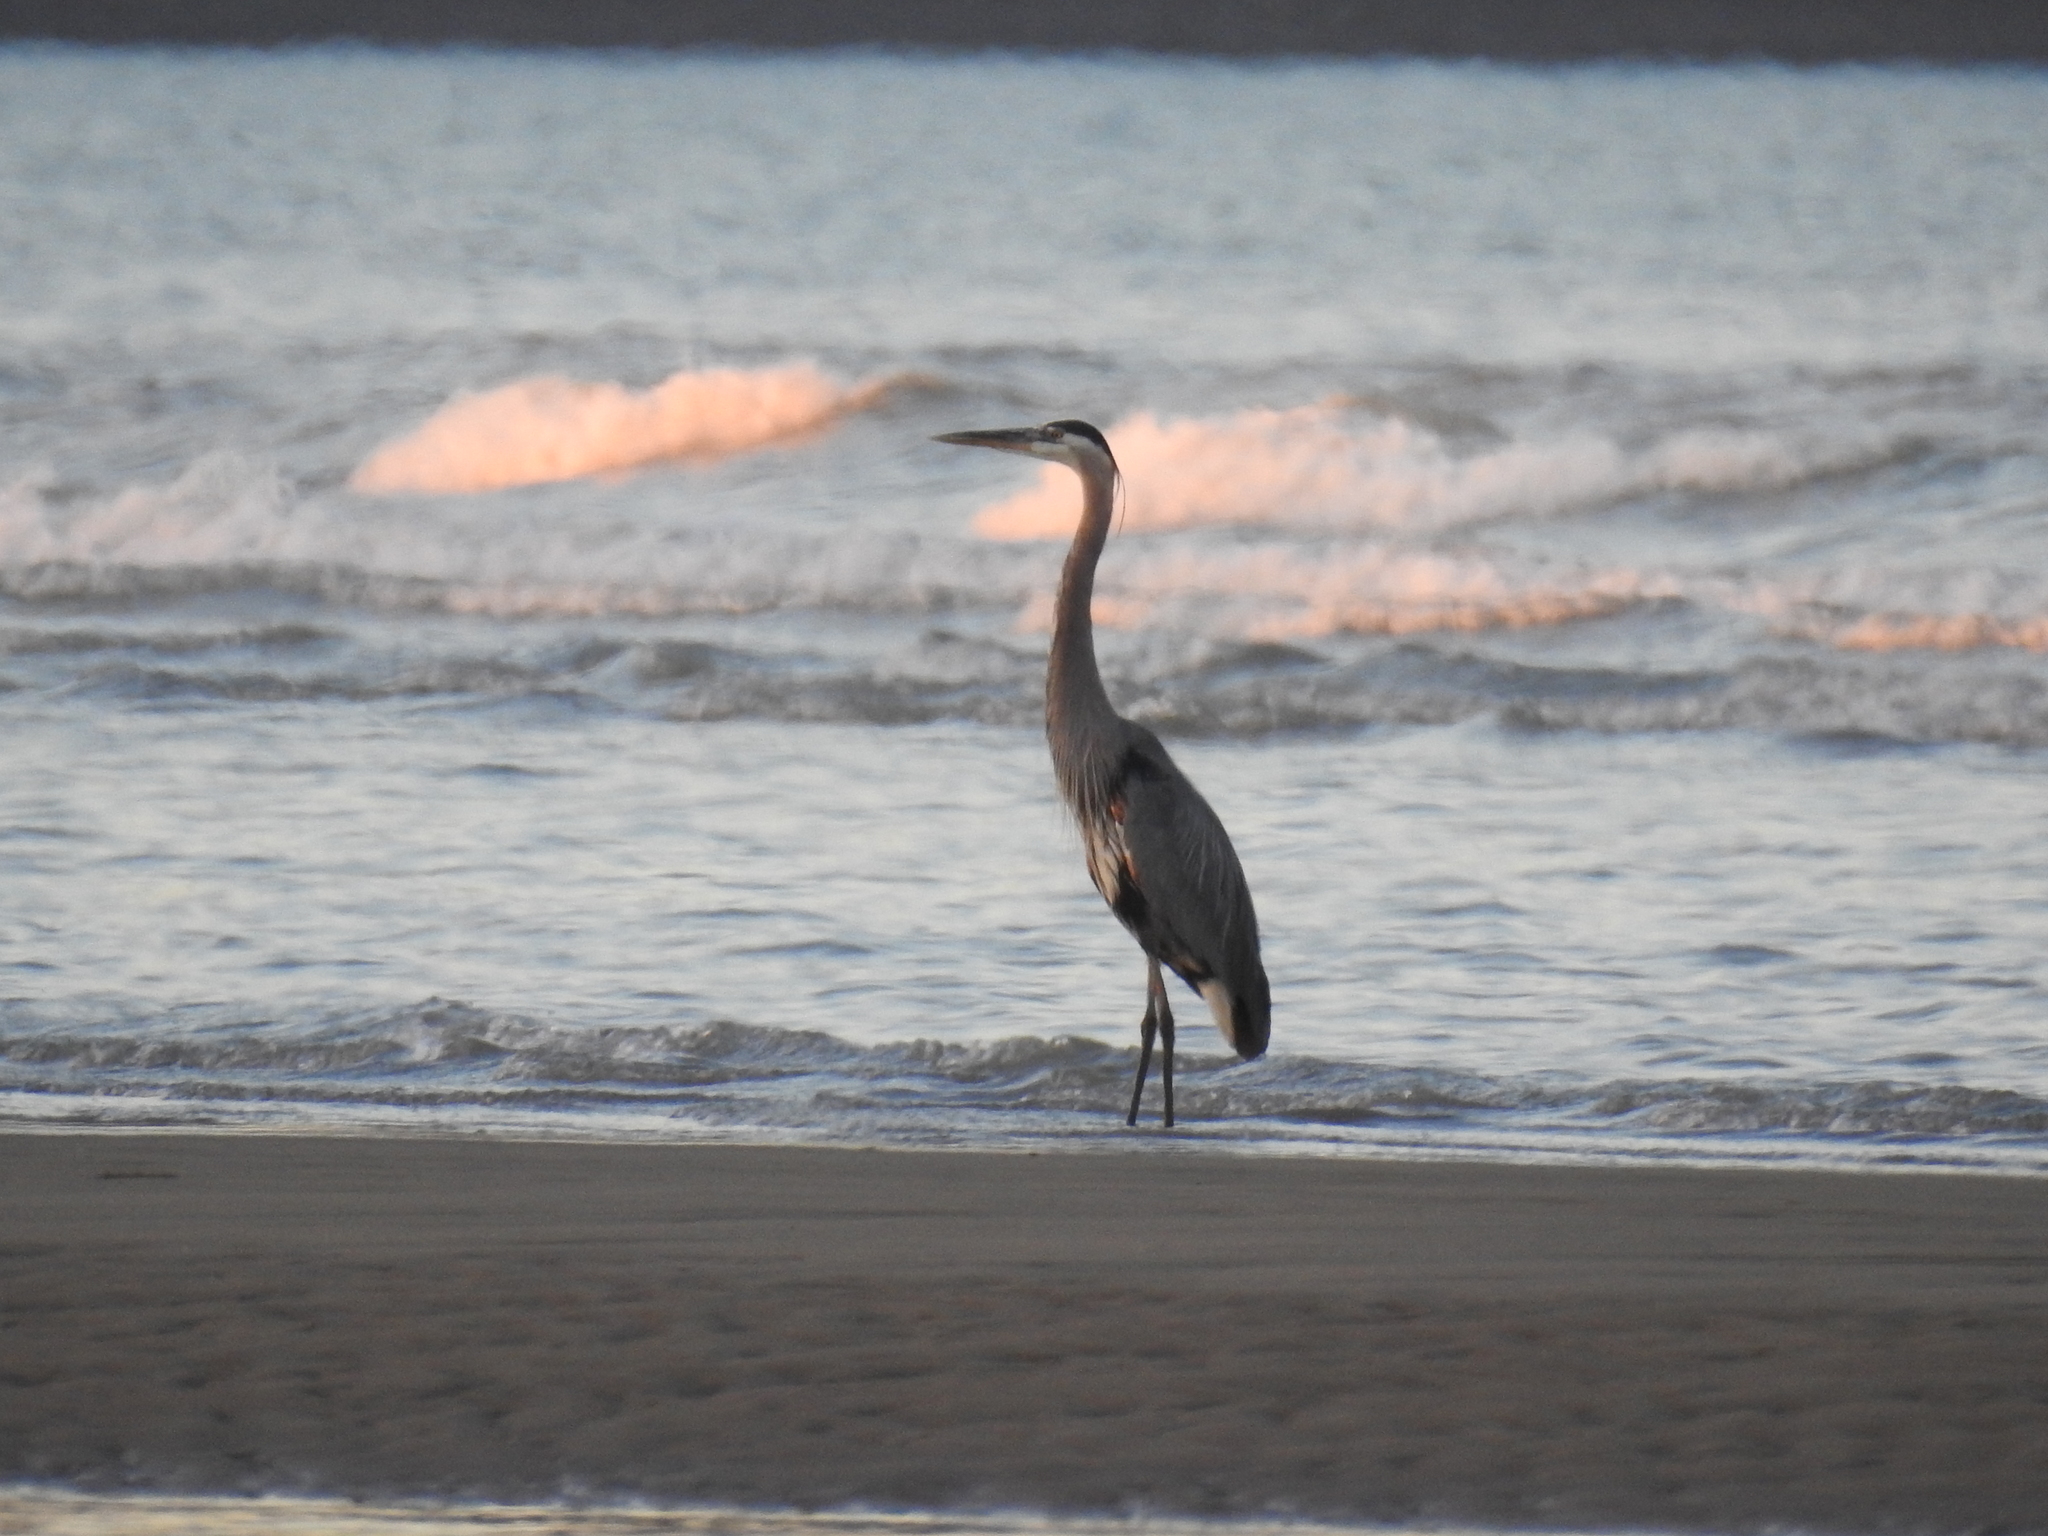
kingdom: Animalia
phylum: Chordata
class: Aves
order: Pelecaniformes
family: Ardeidae
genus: Ardea
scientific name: Ardea herodias
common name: Great blue heron
